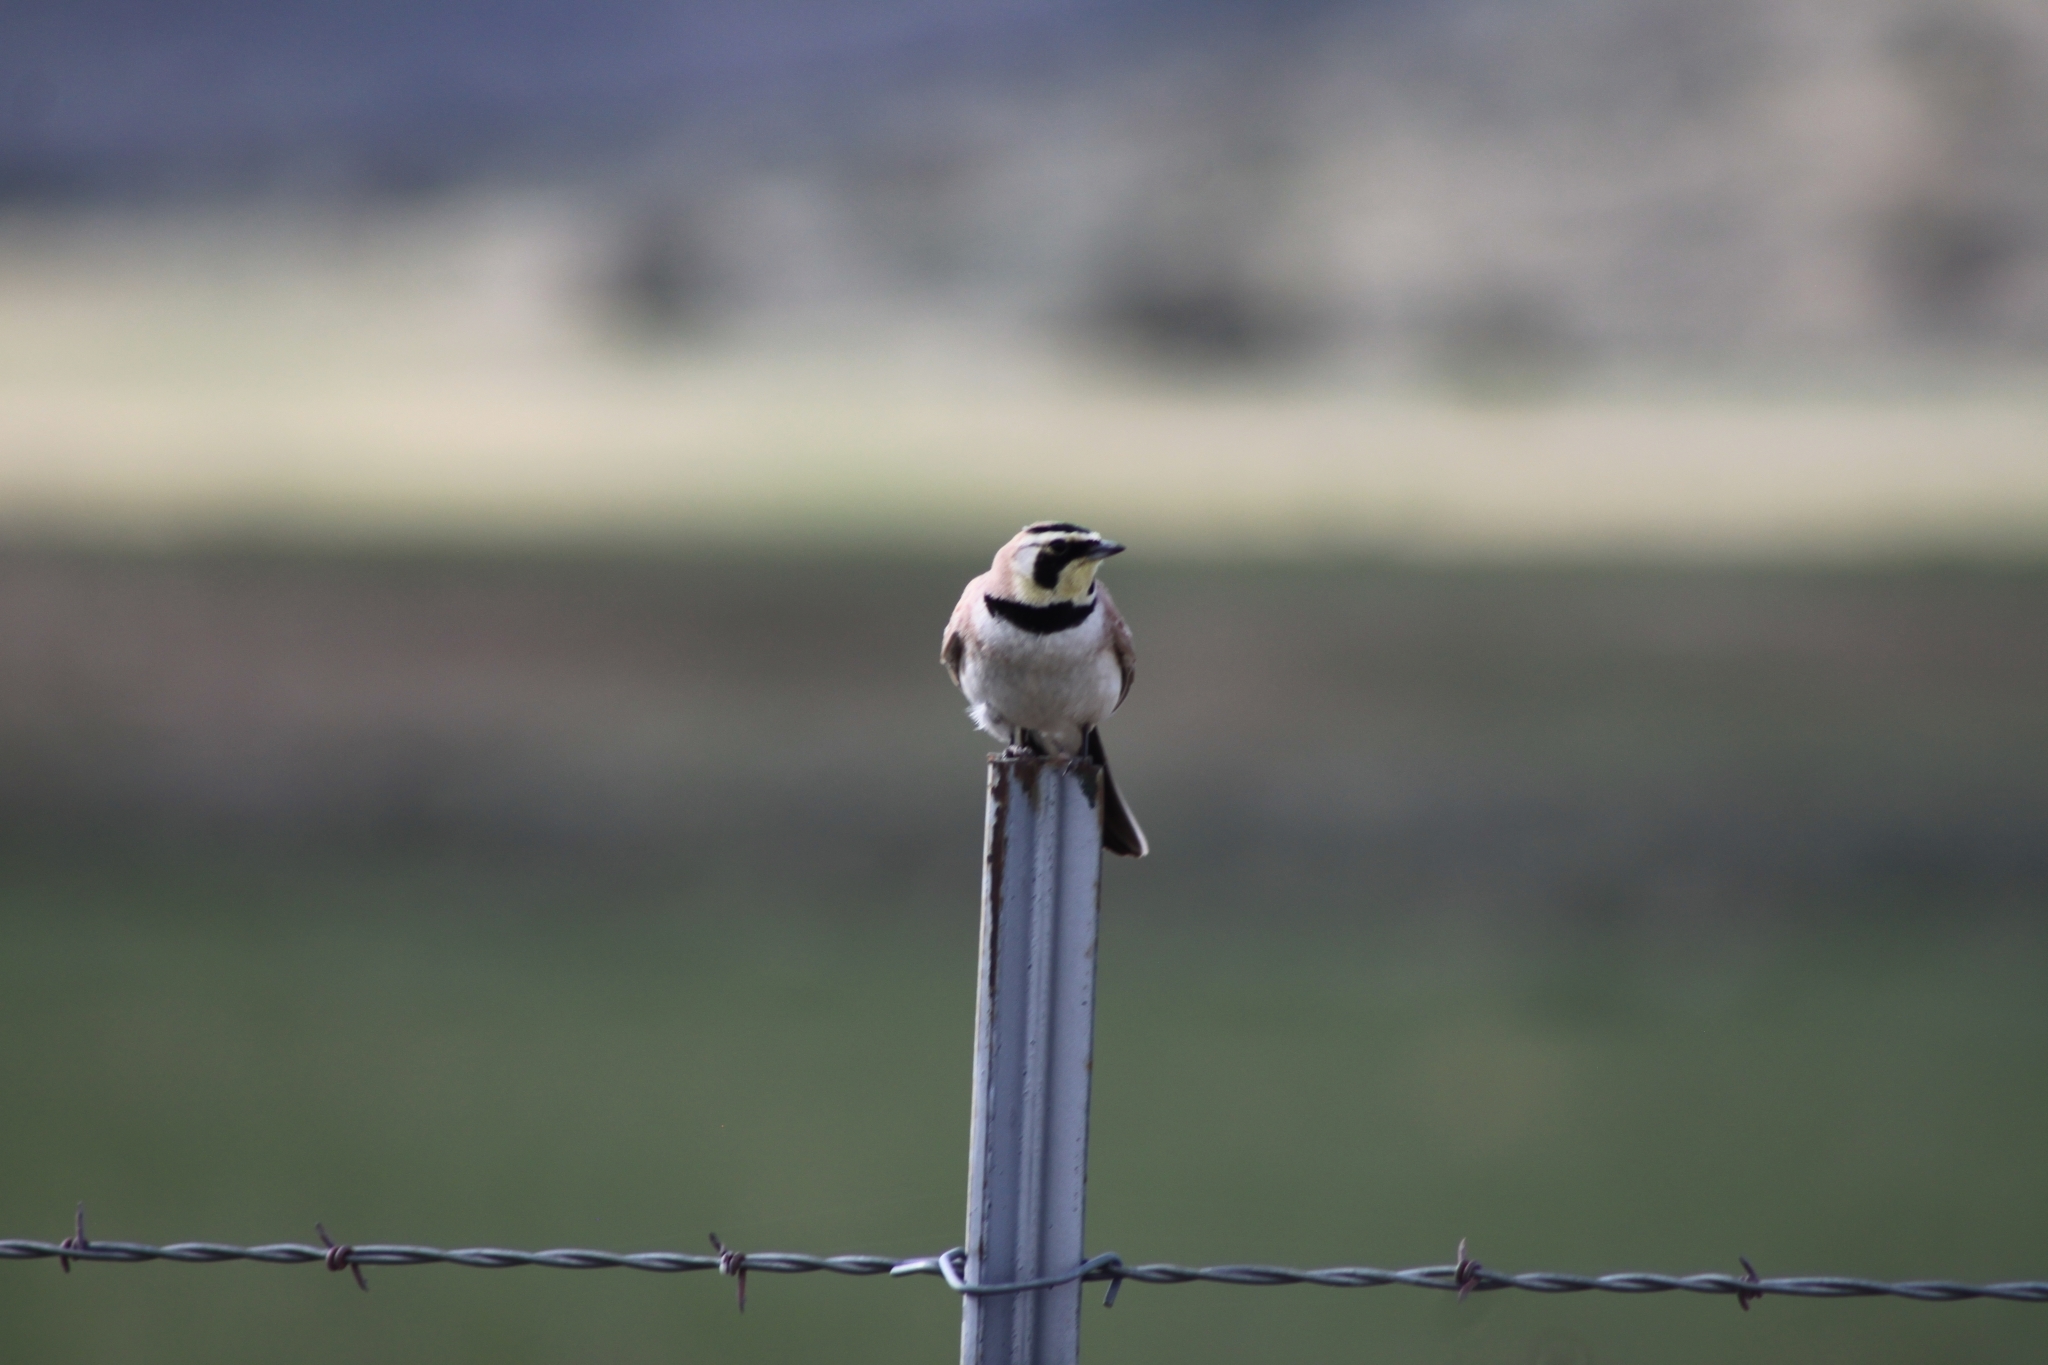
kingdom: Animalia
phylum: Chordata
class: Aves
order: Passeriformes
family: Alaudidae
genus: Eremophila
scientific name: Eremophila alpestris
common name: Horned lark
